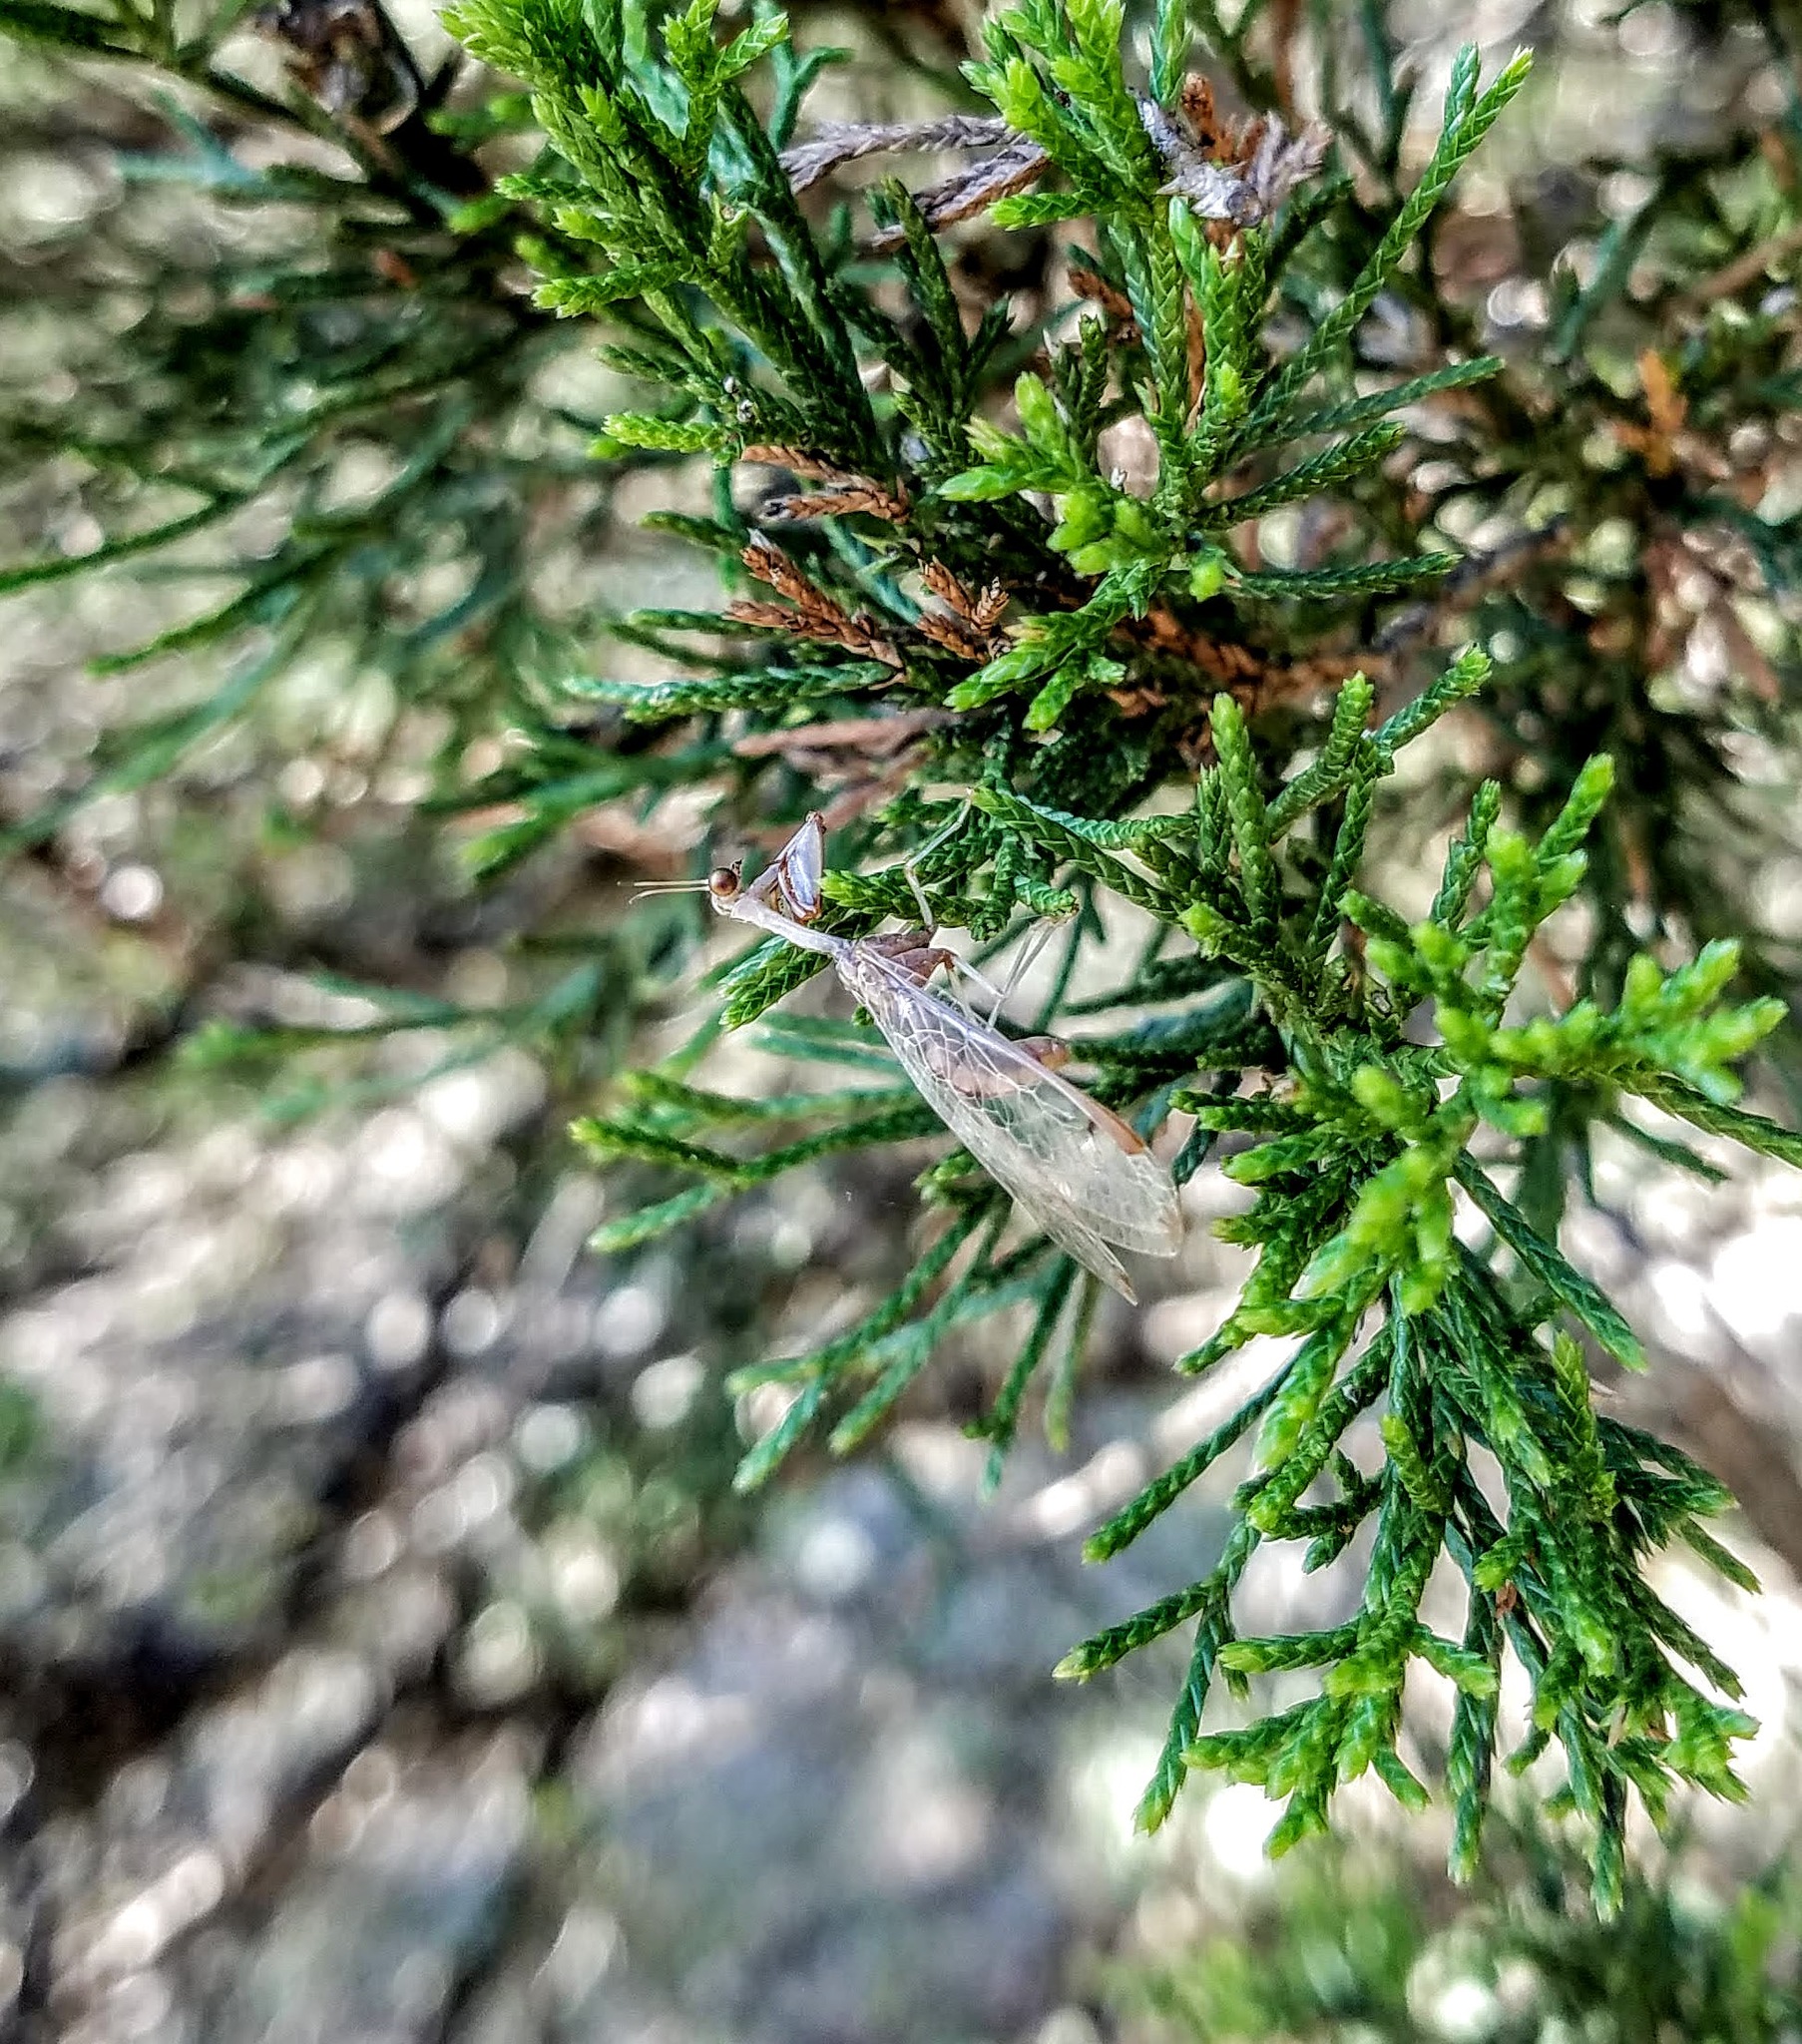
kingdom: Animalia
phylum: Arthropoda
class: Insecta
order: Neuroptera
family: Mantispidae
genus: Dicromantispa
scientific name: Dicromantispa interrupta
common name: Four-spotted mantidfly
